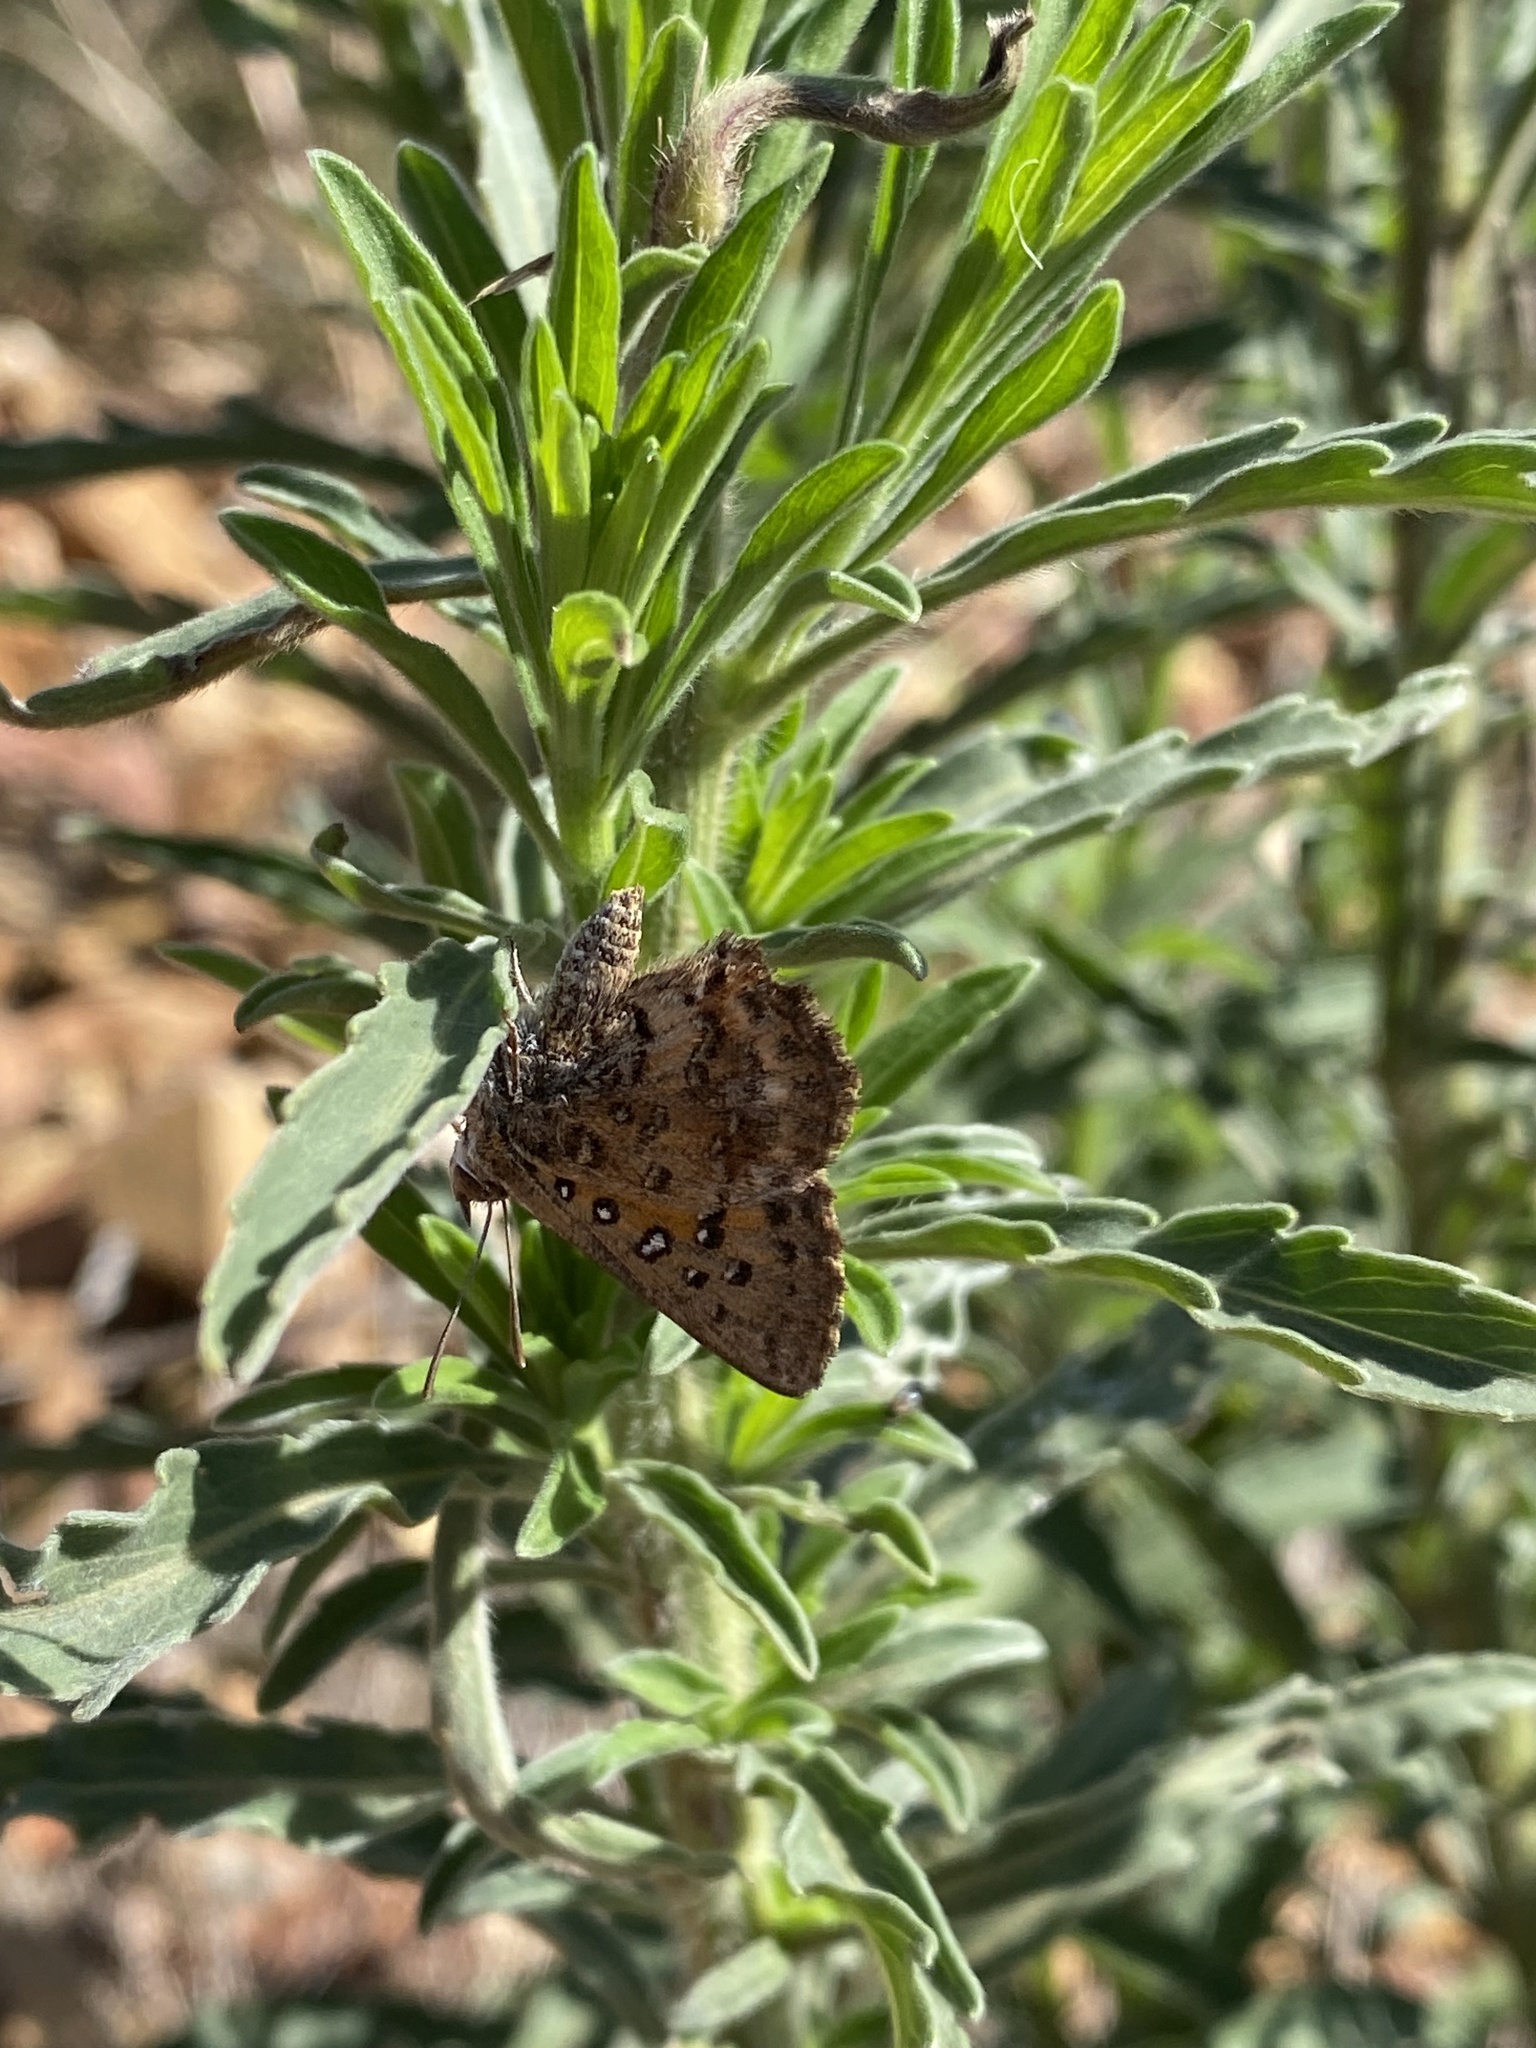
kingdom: Animalia
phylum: Arthropoda
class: Insecta
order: Lepidoptera
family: Lycaenidae
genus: Aloeides
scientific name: Aloeides pierus
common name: Dull copper
